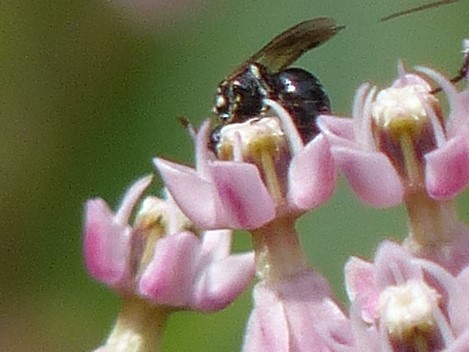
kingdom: Animalia
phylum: Arthropoda
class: Insecta
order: Hymenoptera
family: Colletidae
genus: Hylaeus
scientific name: Hylaeus leptocephalus
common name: Slender-faced masked bee
